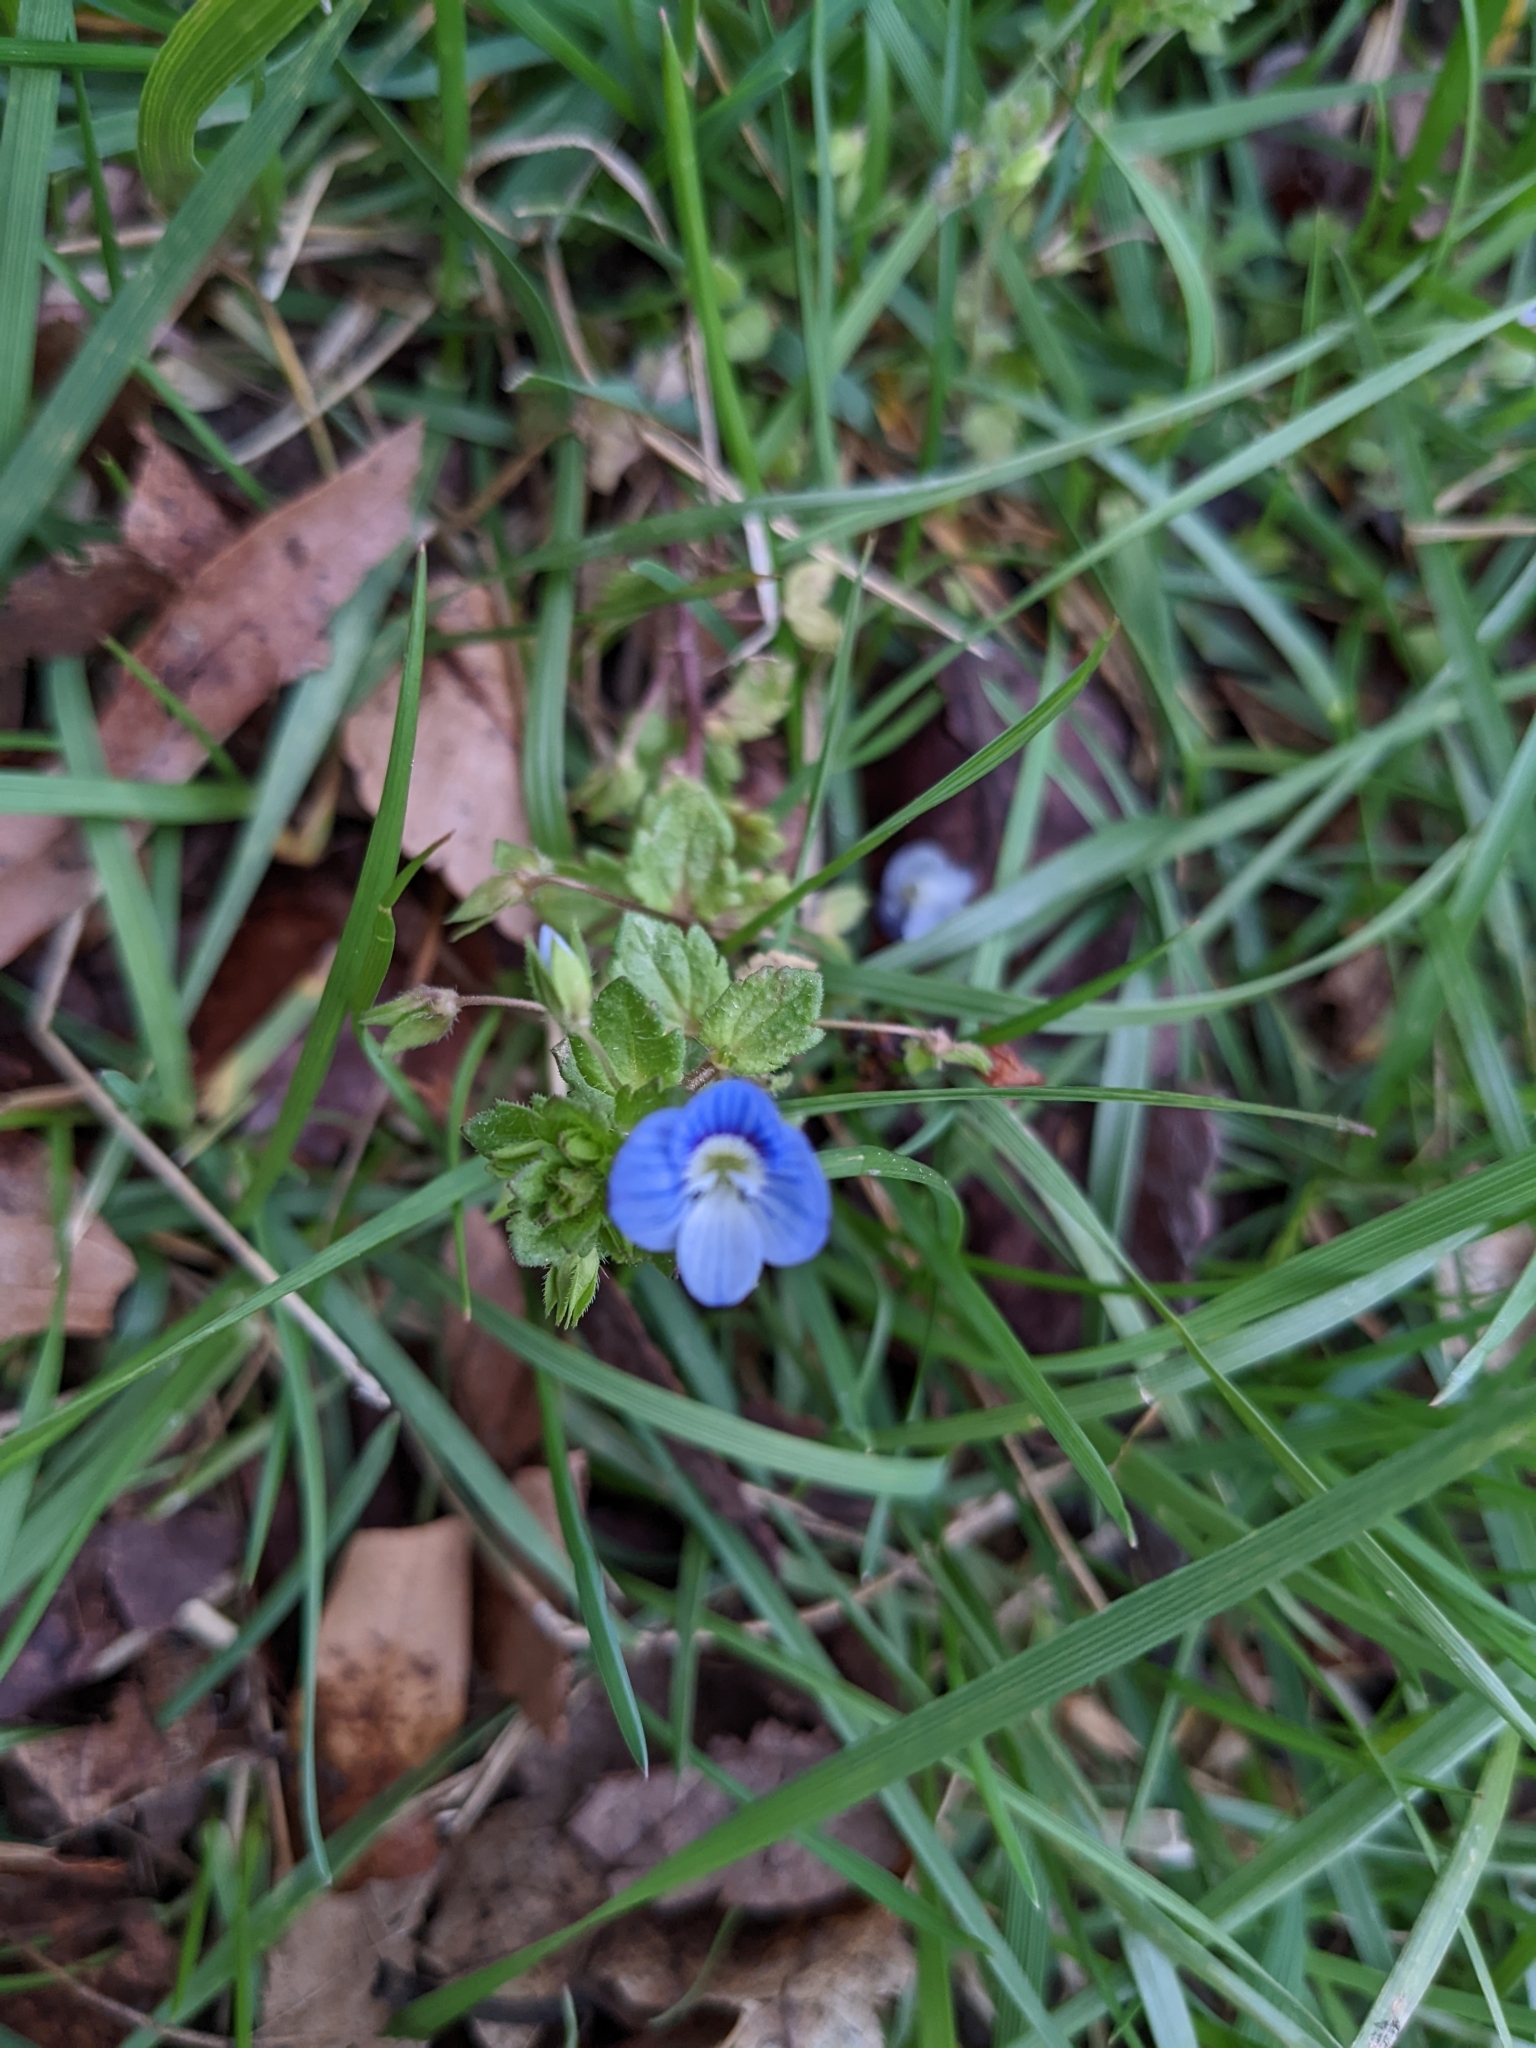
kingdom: Plantae
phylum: Tracheophyta
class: Magnoliopsida
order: Lamiales
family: Plantaginaceae
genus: Veronica
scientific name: Veronica persica
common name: Common field-speedwell
